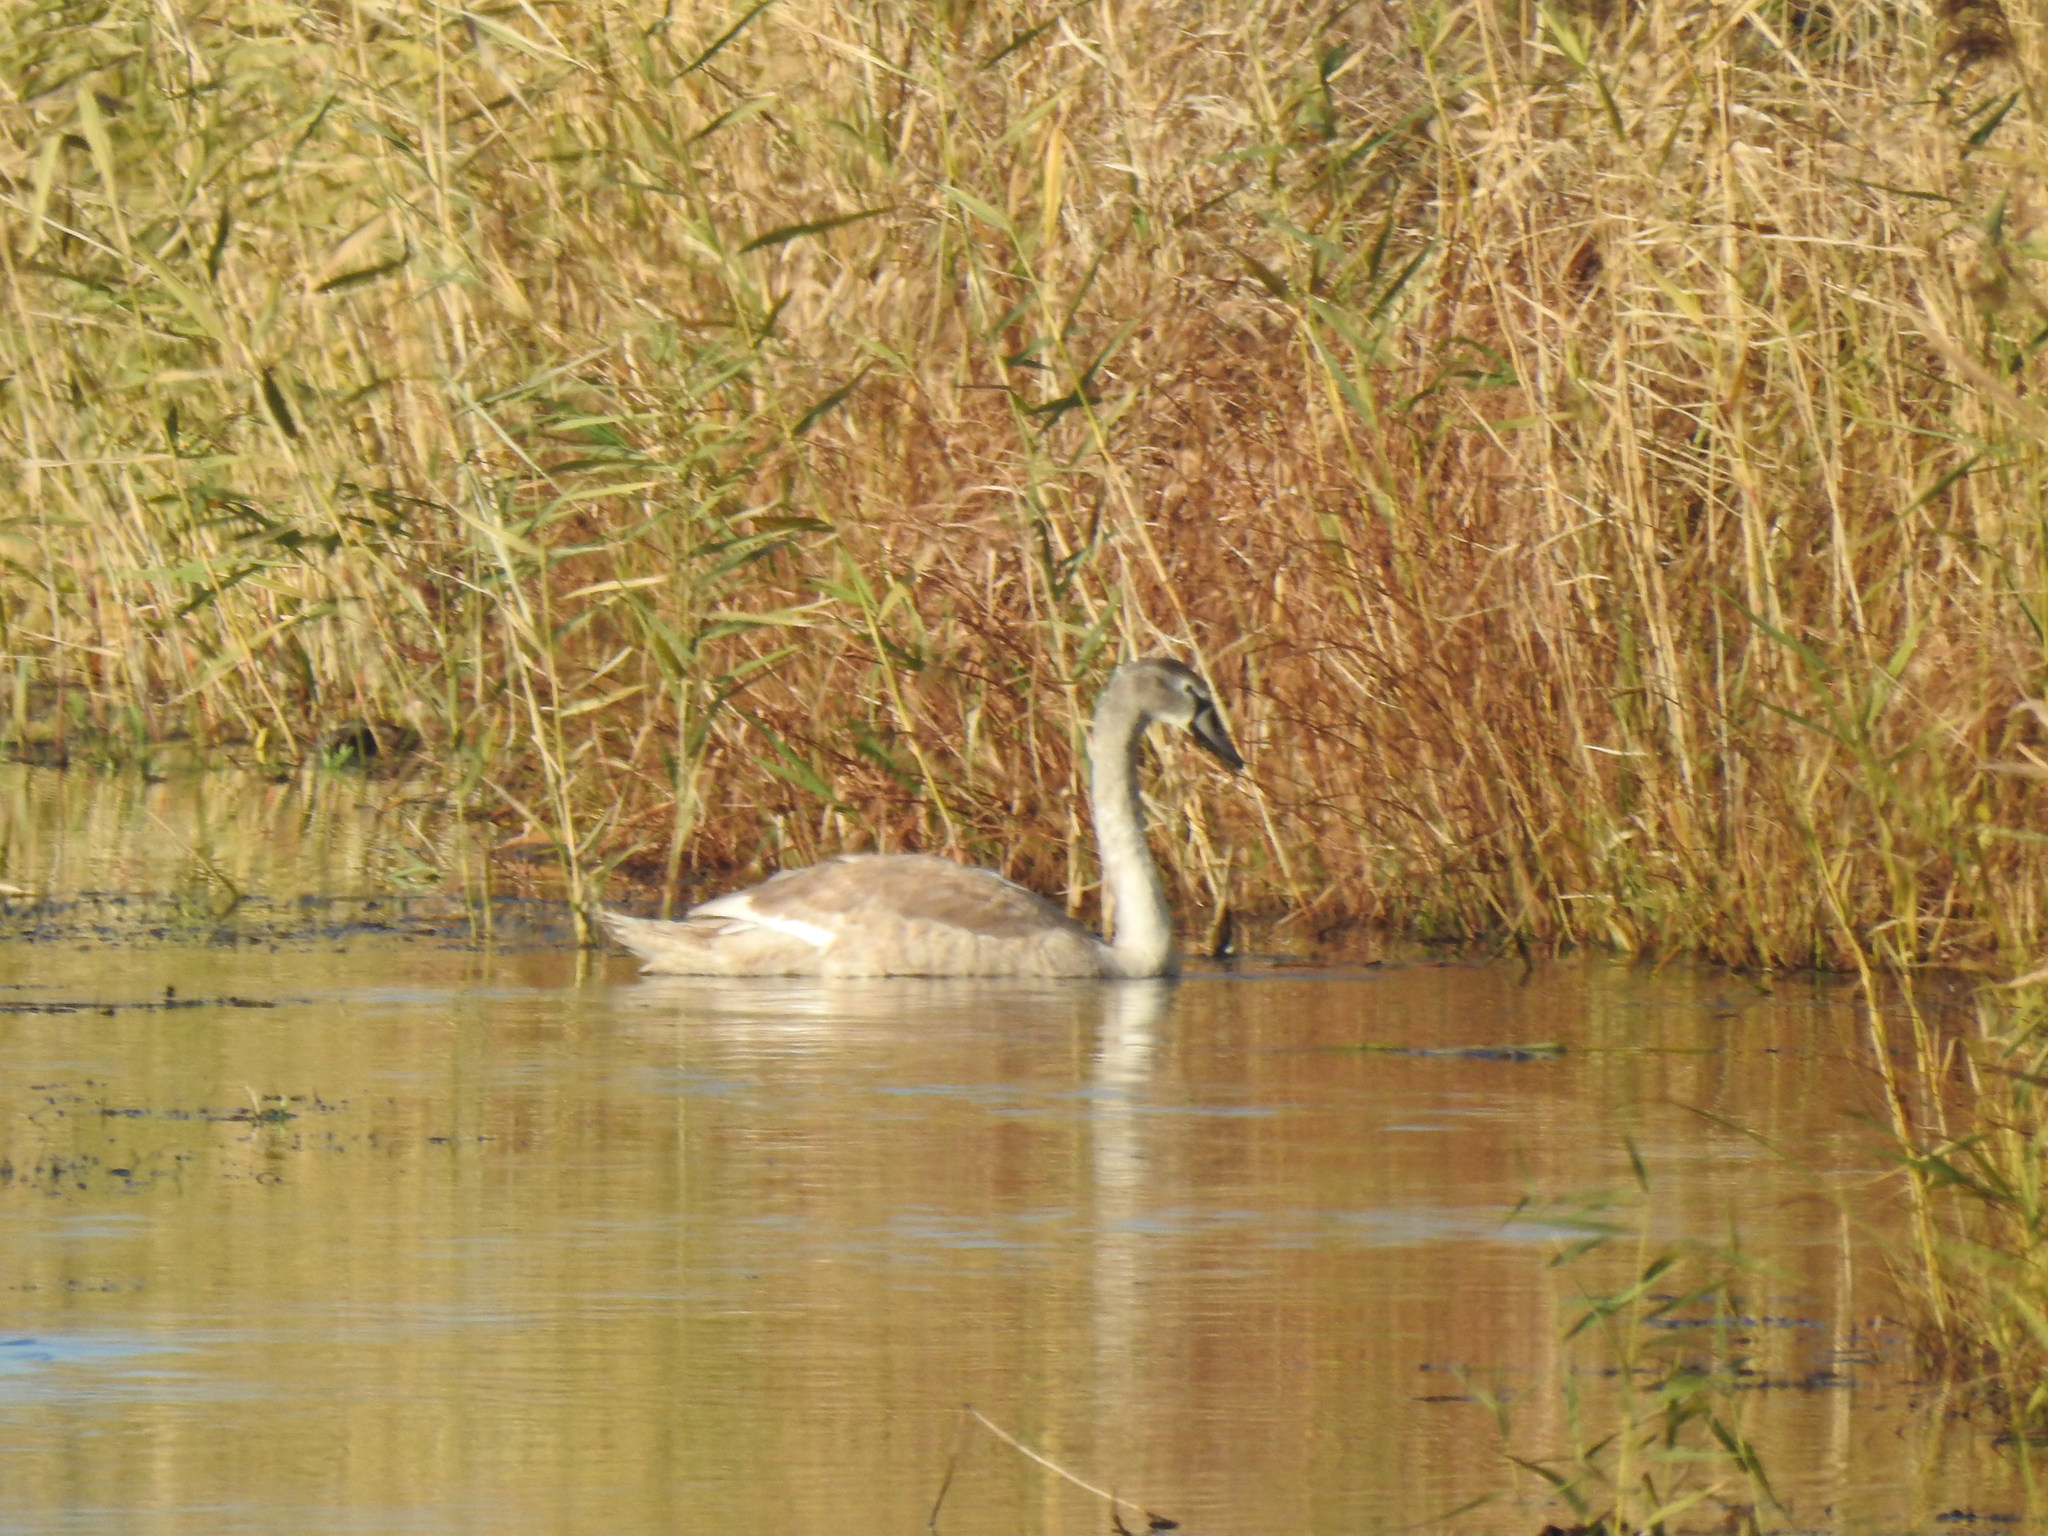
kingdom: Animalia
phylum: Chordata
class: Aves
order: Anseriformes
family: Anatidae
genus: Cygnus
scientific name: Cygnus olor
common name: Mute swan
